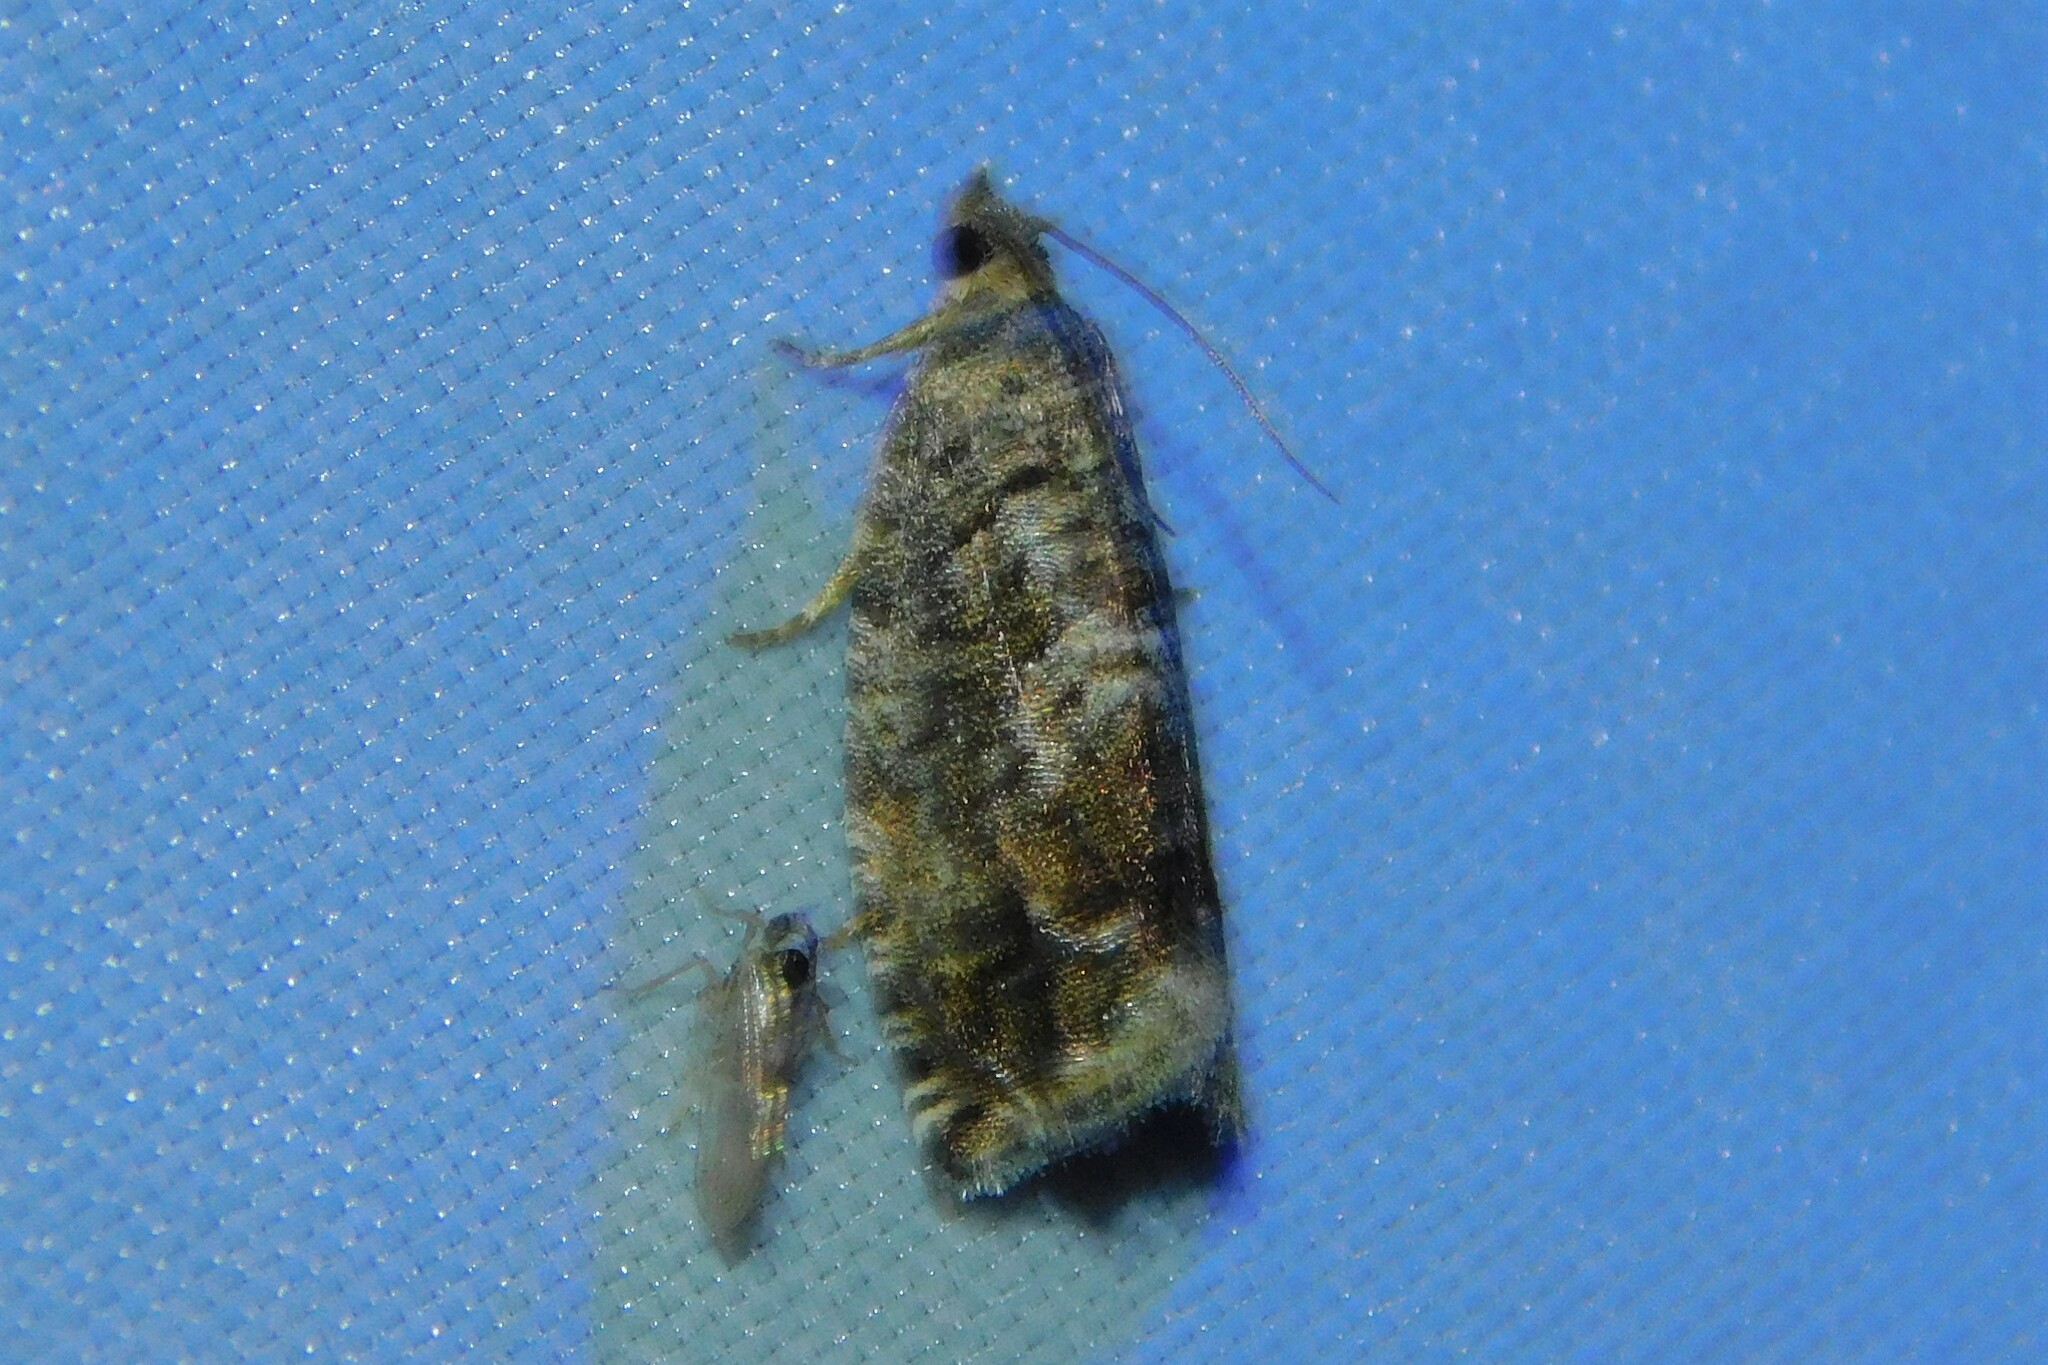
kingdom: Animalia
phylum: Arthropoda
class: Insecta
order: Lepidoptera
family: Tortricidae
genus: Cydia
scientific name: Cydia fagiglandana
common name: Large beech piercer
